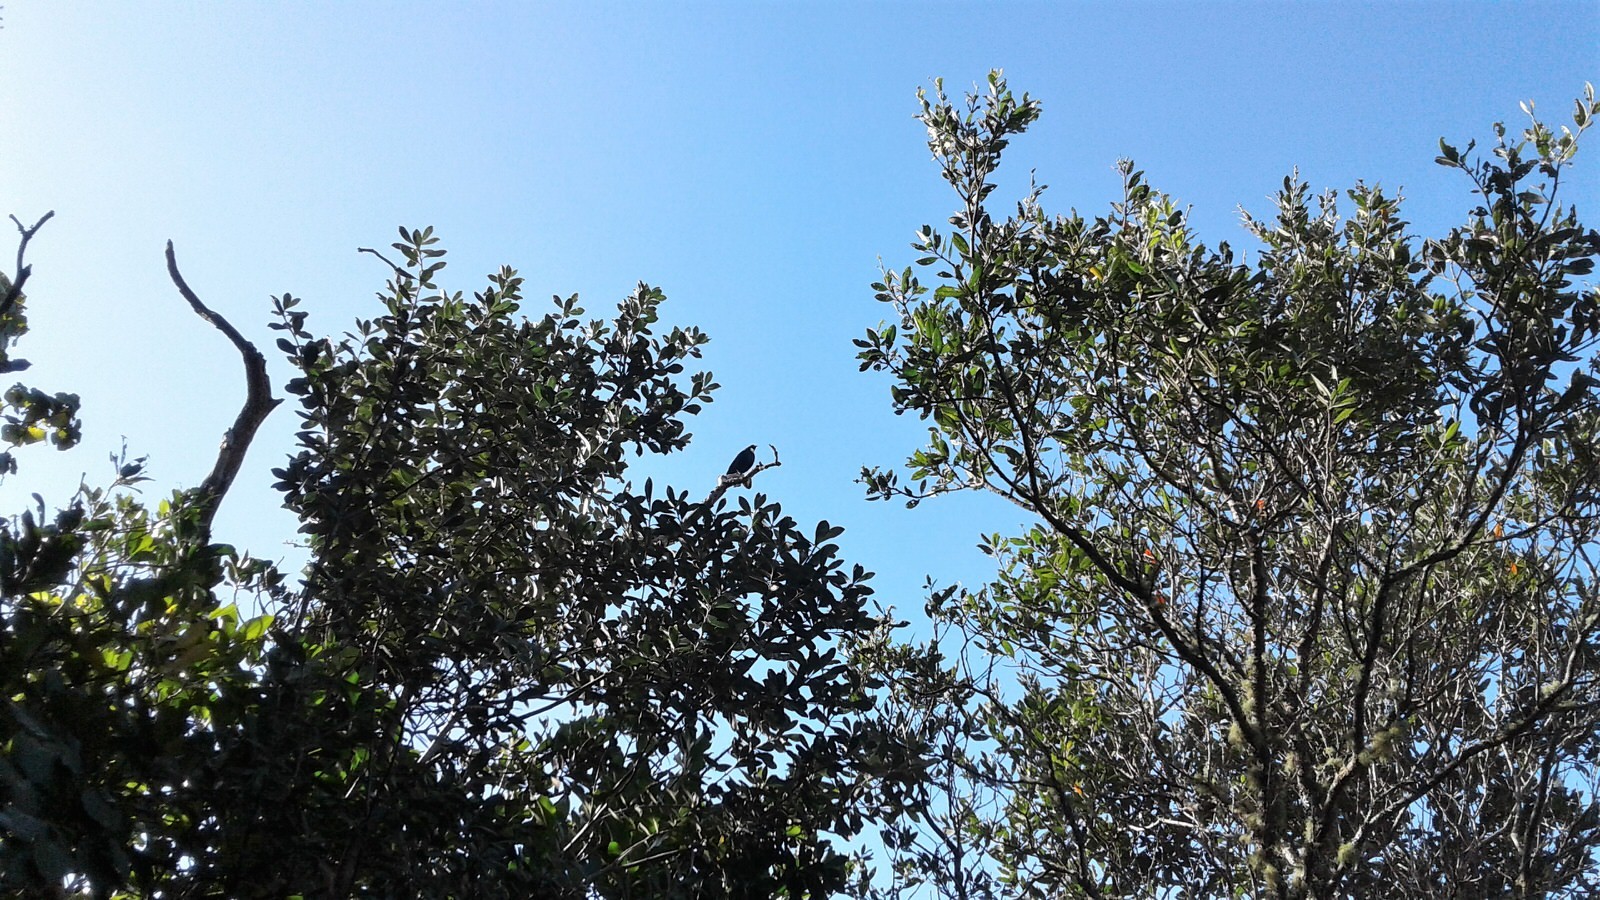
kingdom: Animalia
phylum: Chordata
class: Aves
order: Passeriformes
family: Meliphagidae
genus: Prosthemadera
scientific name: Prosthemadera novaeseelandiae
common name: Tui
